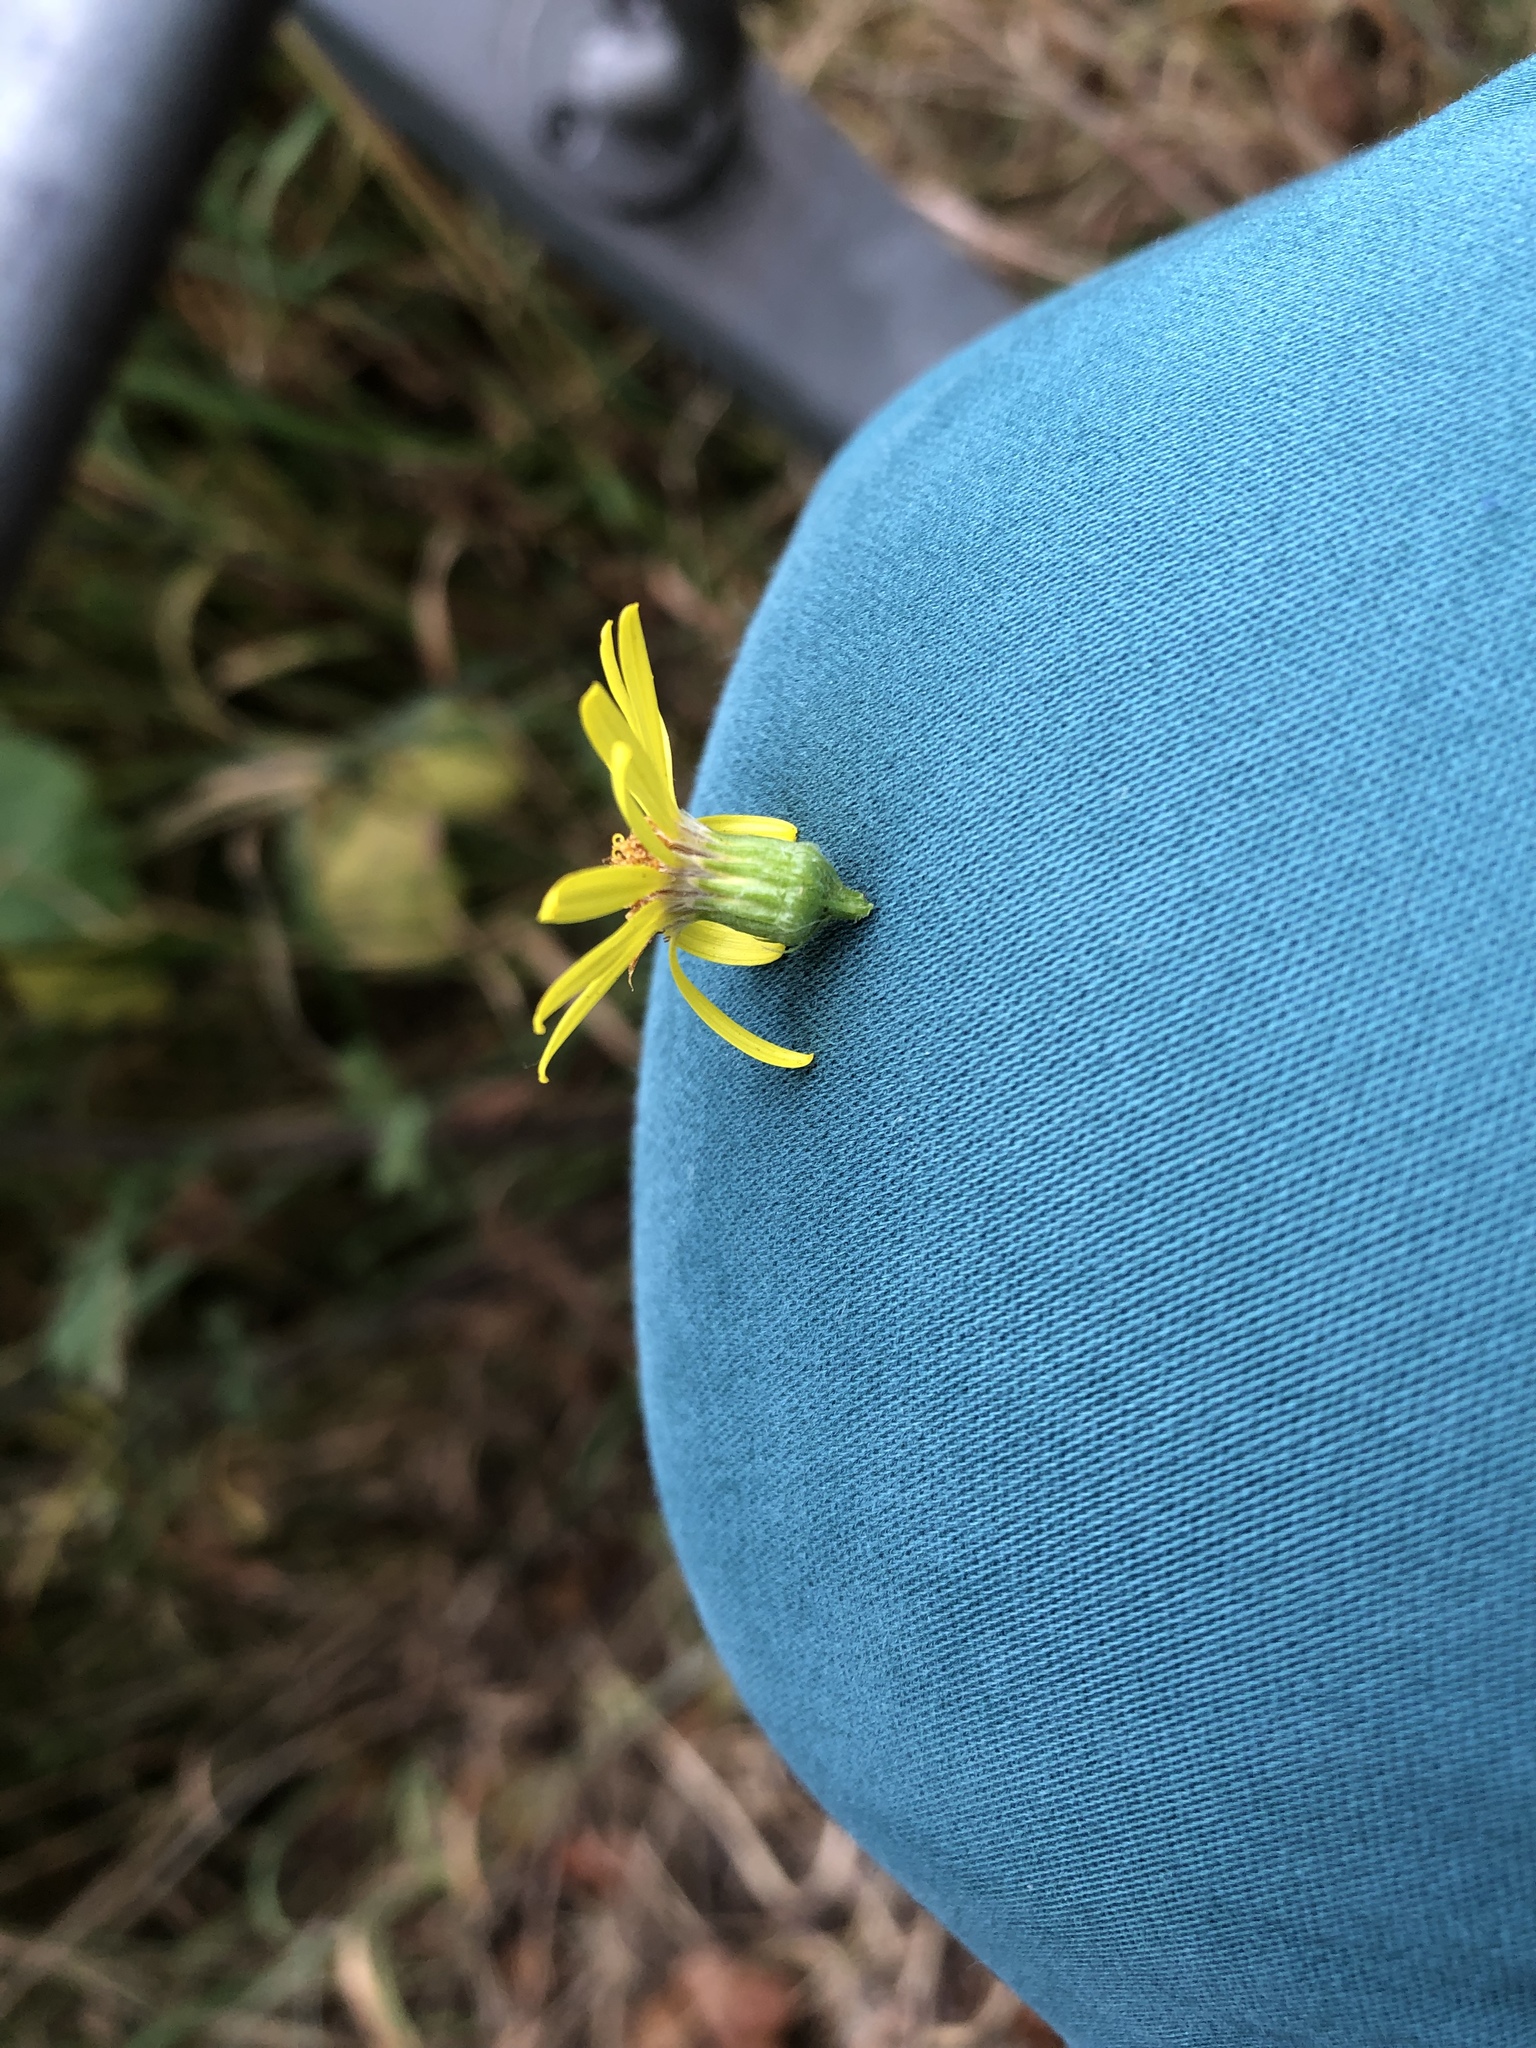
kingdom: Plantae
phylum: Tracheophyta
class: Magnoliopsida
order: Asterales
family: Asteraceae
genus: Jacobaea
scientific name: Jacobaea erucifolia
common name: Hoary ragwort
